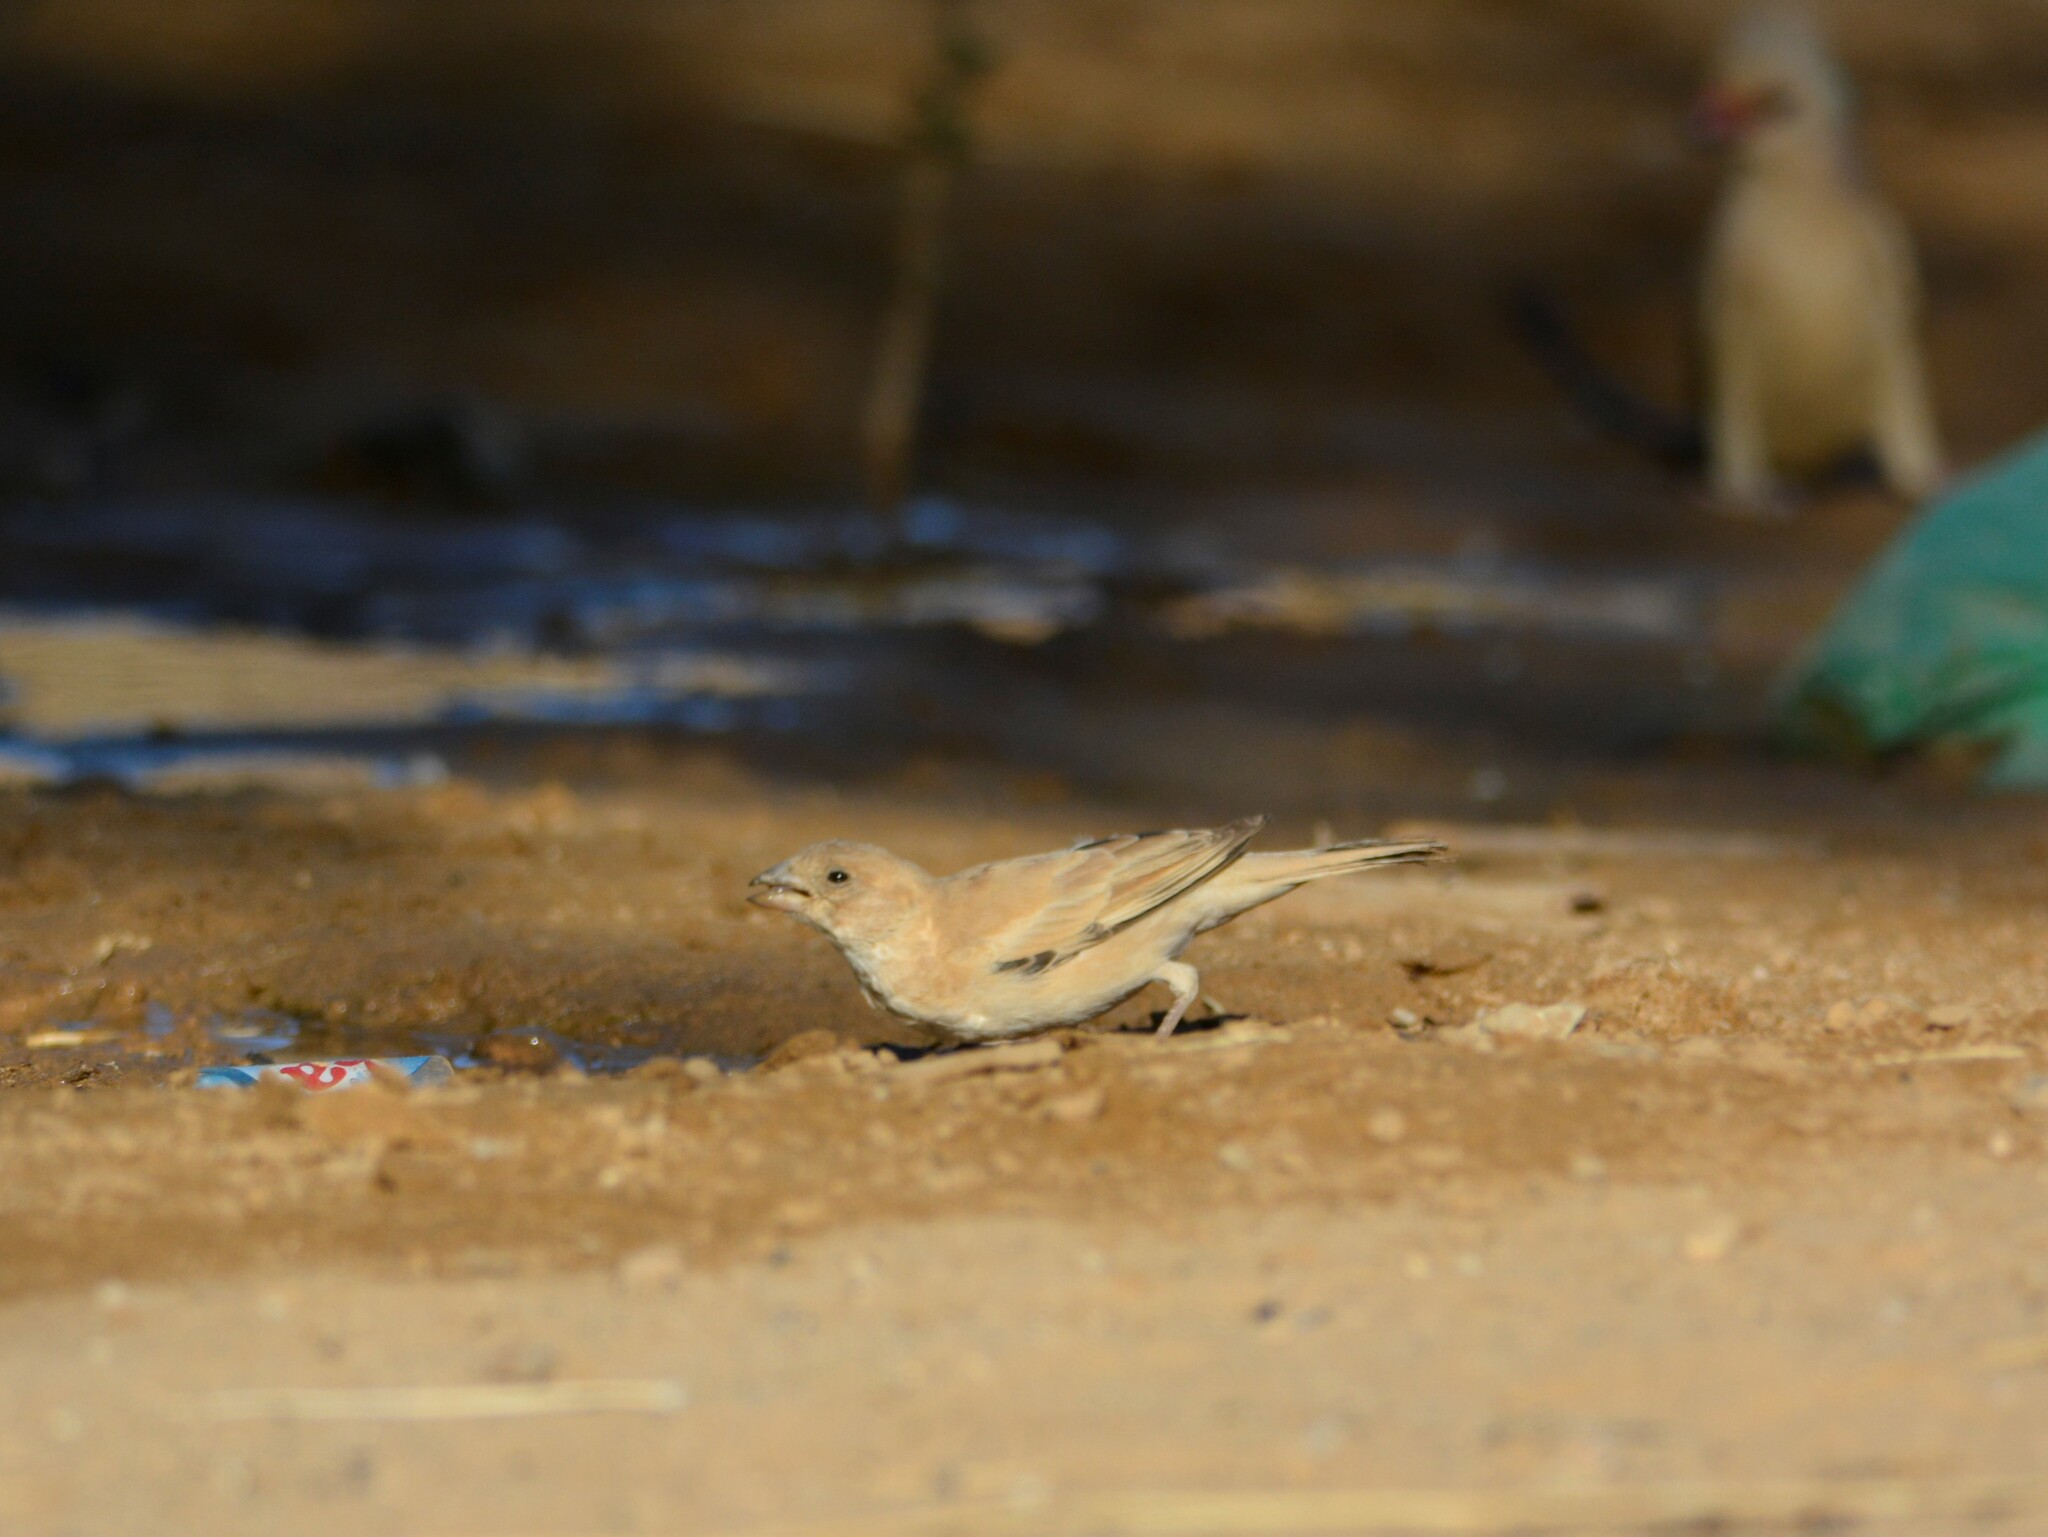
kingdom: Animalia
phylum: Chordata
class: Aves
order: Passeriformes
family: Passeridae
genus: Passer
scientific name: Passer simplex
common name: Desert sparrow
